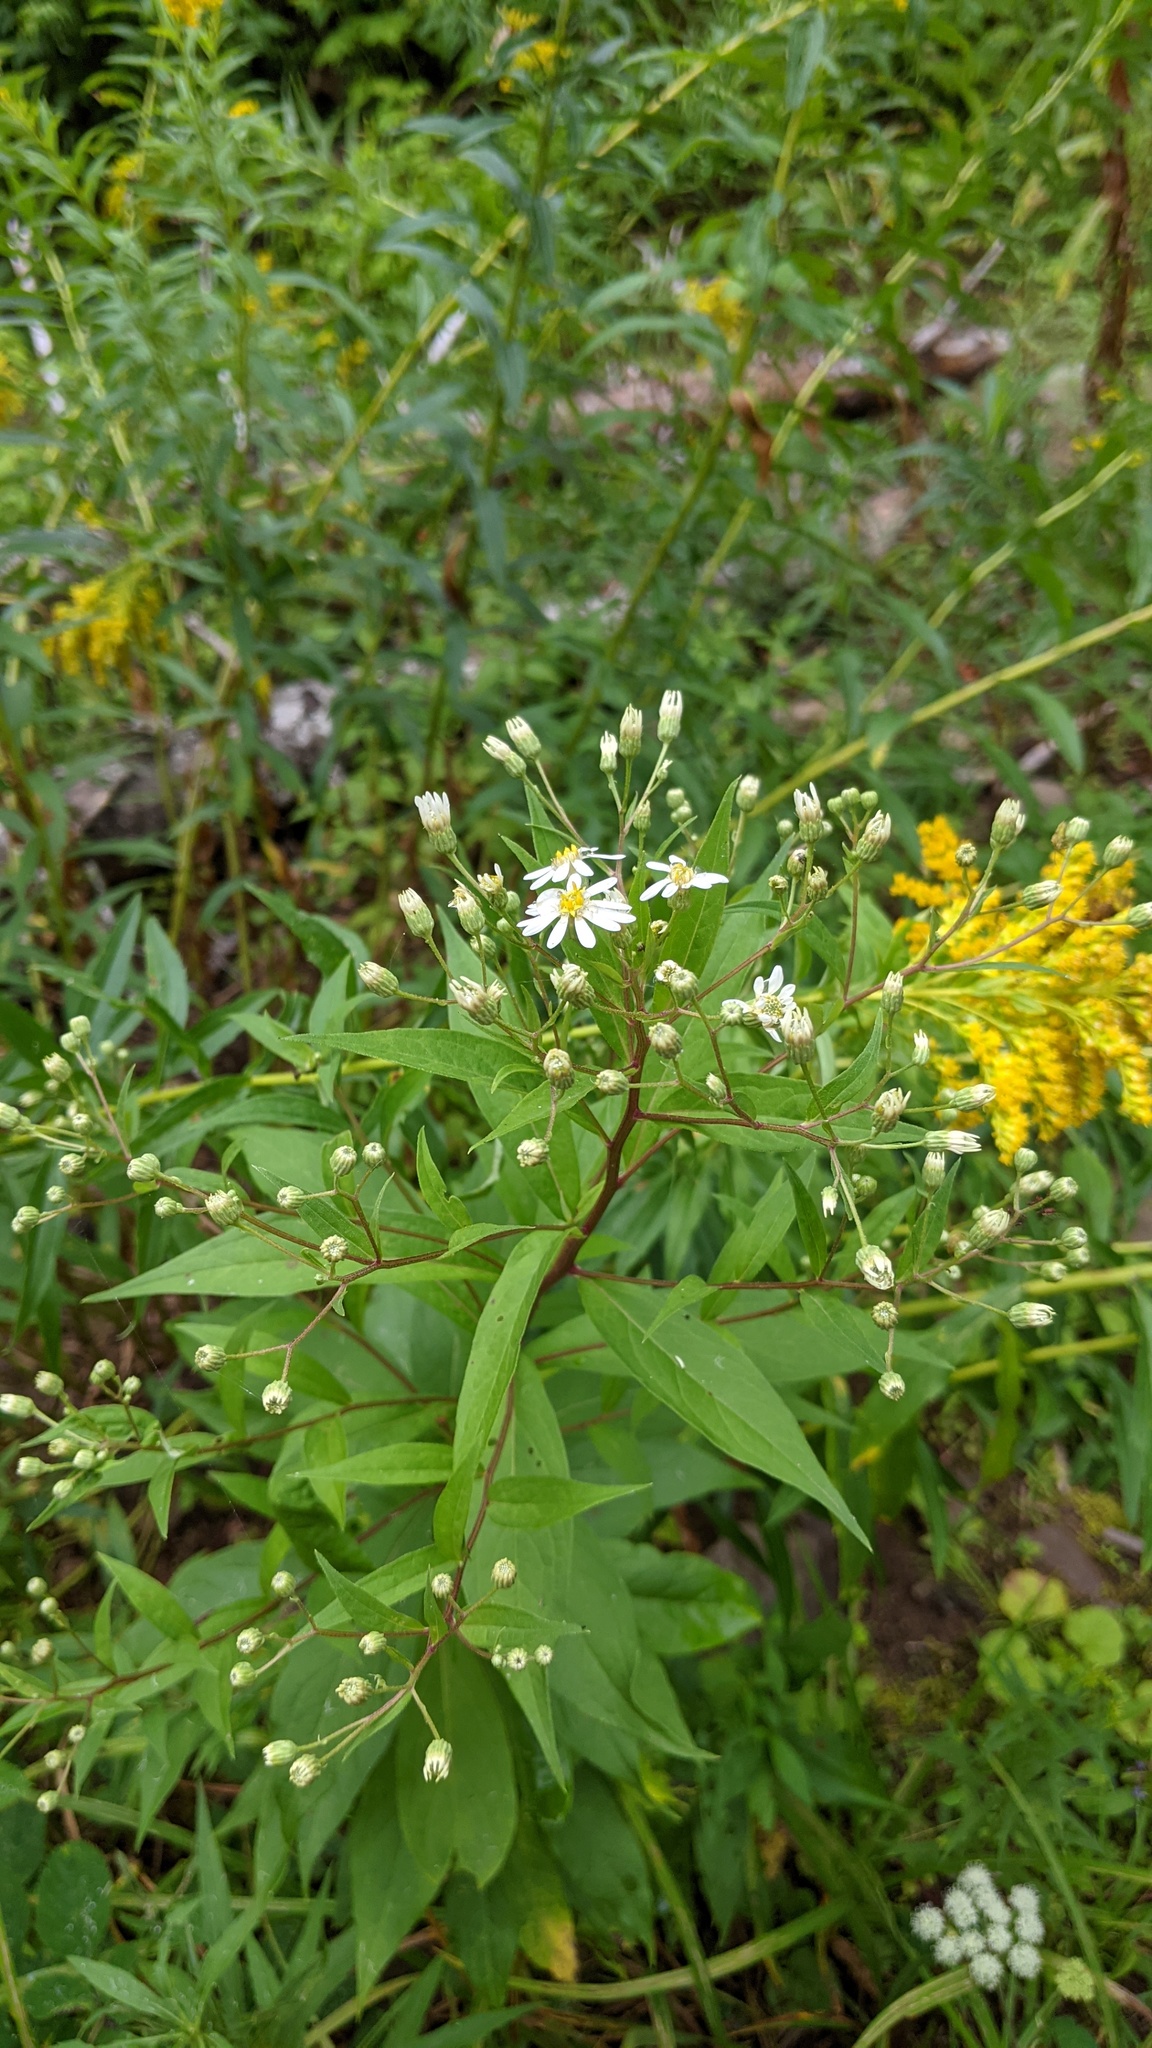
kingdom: Plantae
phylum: Tracheophyta
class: Magnoliopsida
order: Asterales
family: Asteraceae
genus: Doellingeria
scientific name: Doellingeria umbellata
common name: Flat-top white aster
